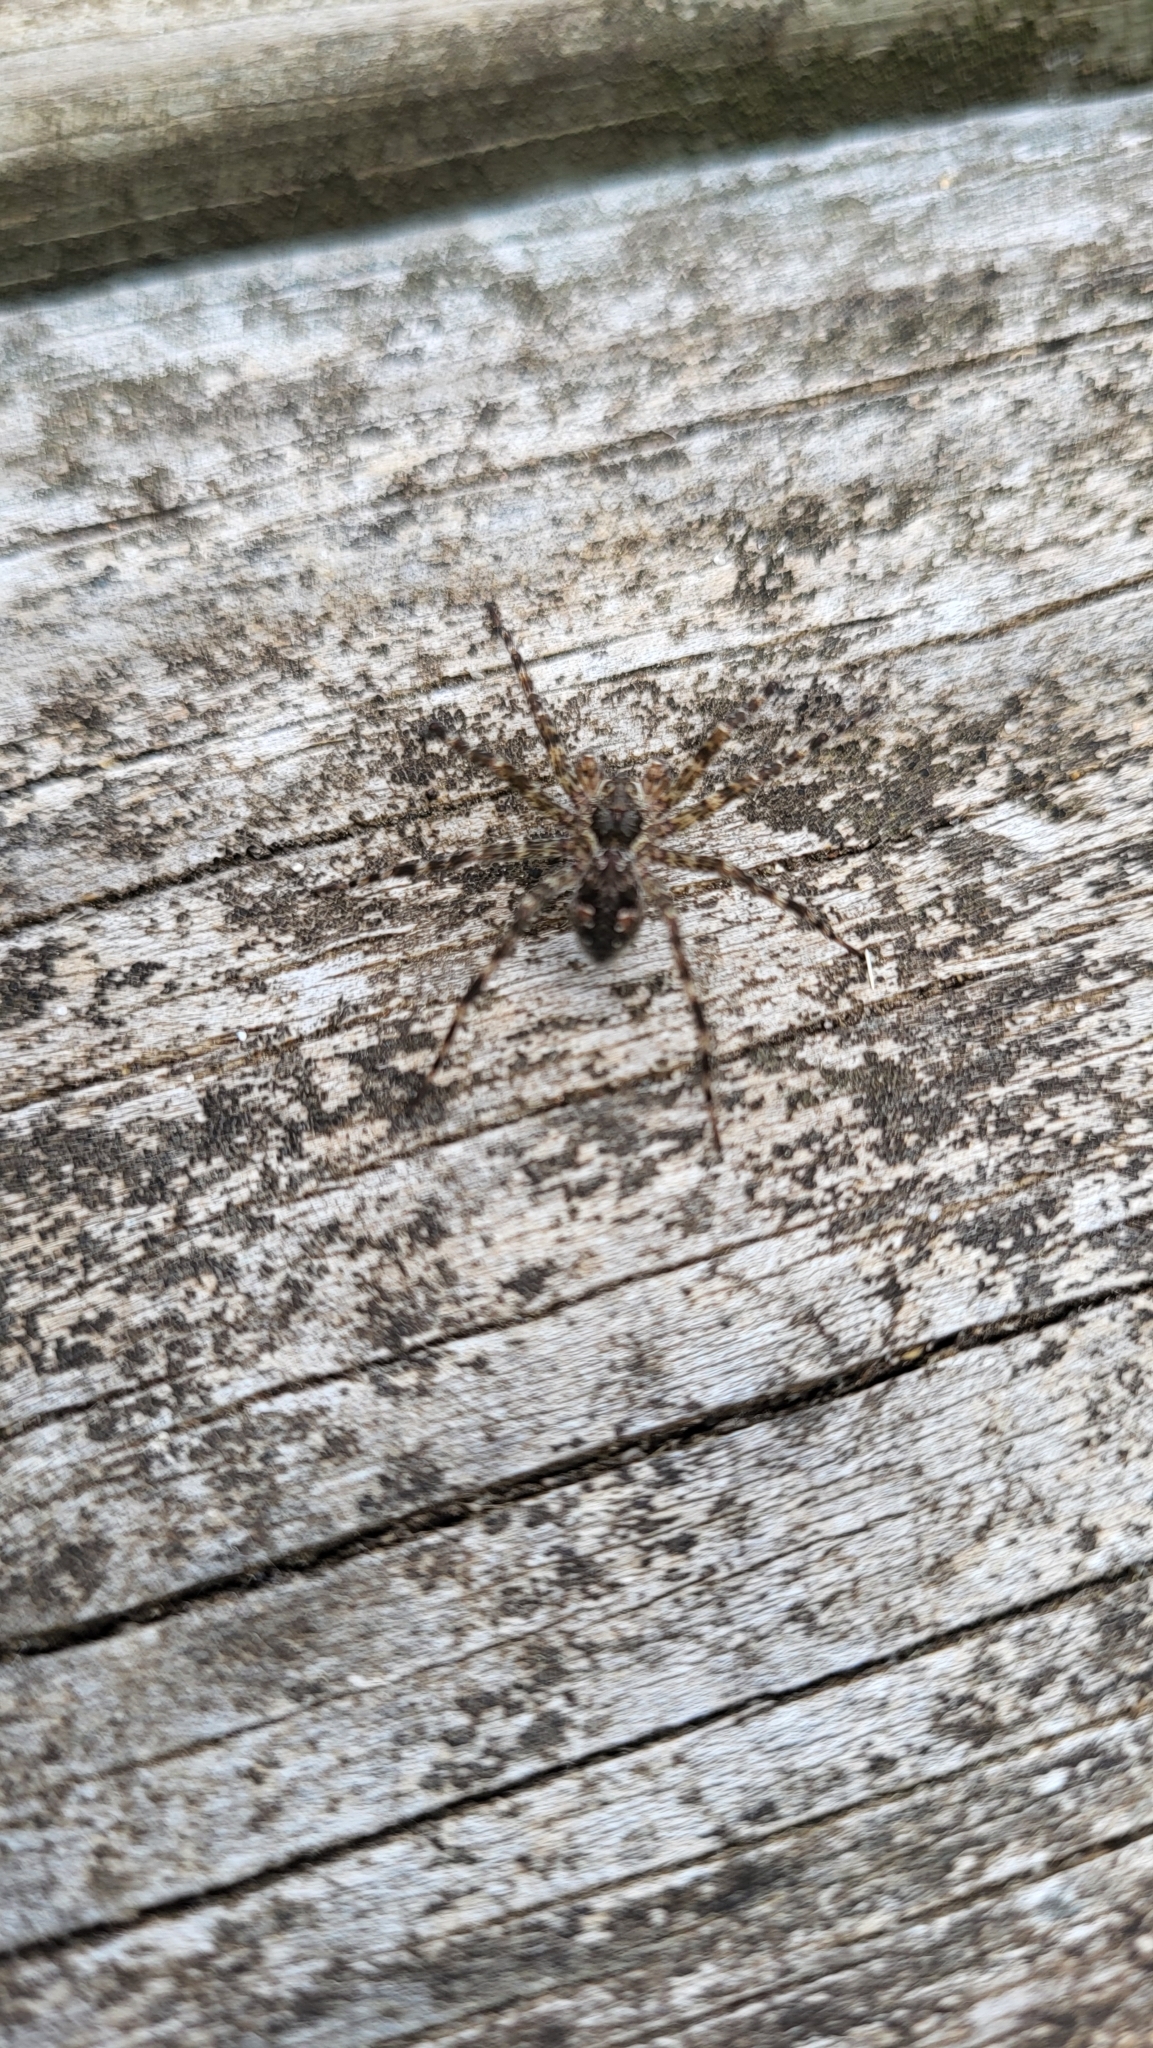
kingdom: Animalia
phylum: Arthropoda
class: Arachnida
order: Araneae
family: Pisauridae
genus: Dolomedes
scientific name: Dolomedes tenebrosus
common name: Dark fishing spider
